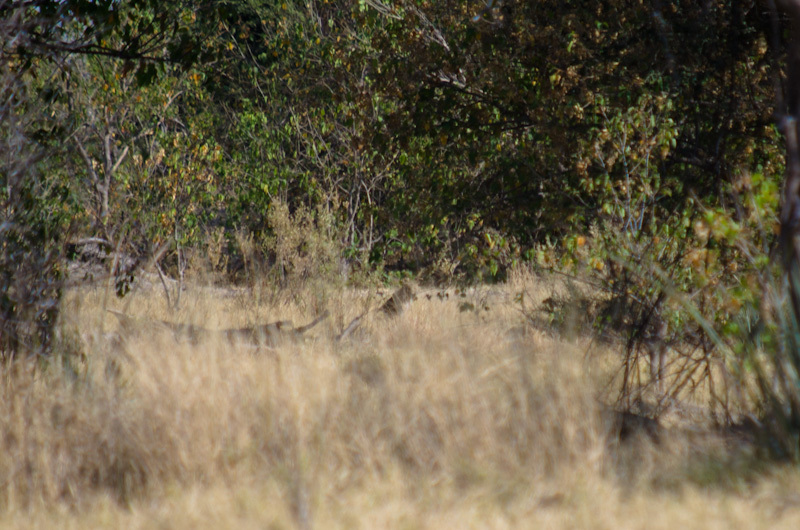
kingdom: Animalia
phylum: Chordata
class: Mammalia
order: Carnivora
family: Felidae
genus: Panthera
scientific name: Panthera pardus
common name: Leopard
